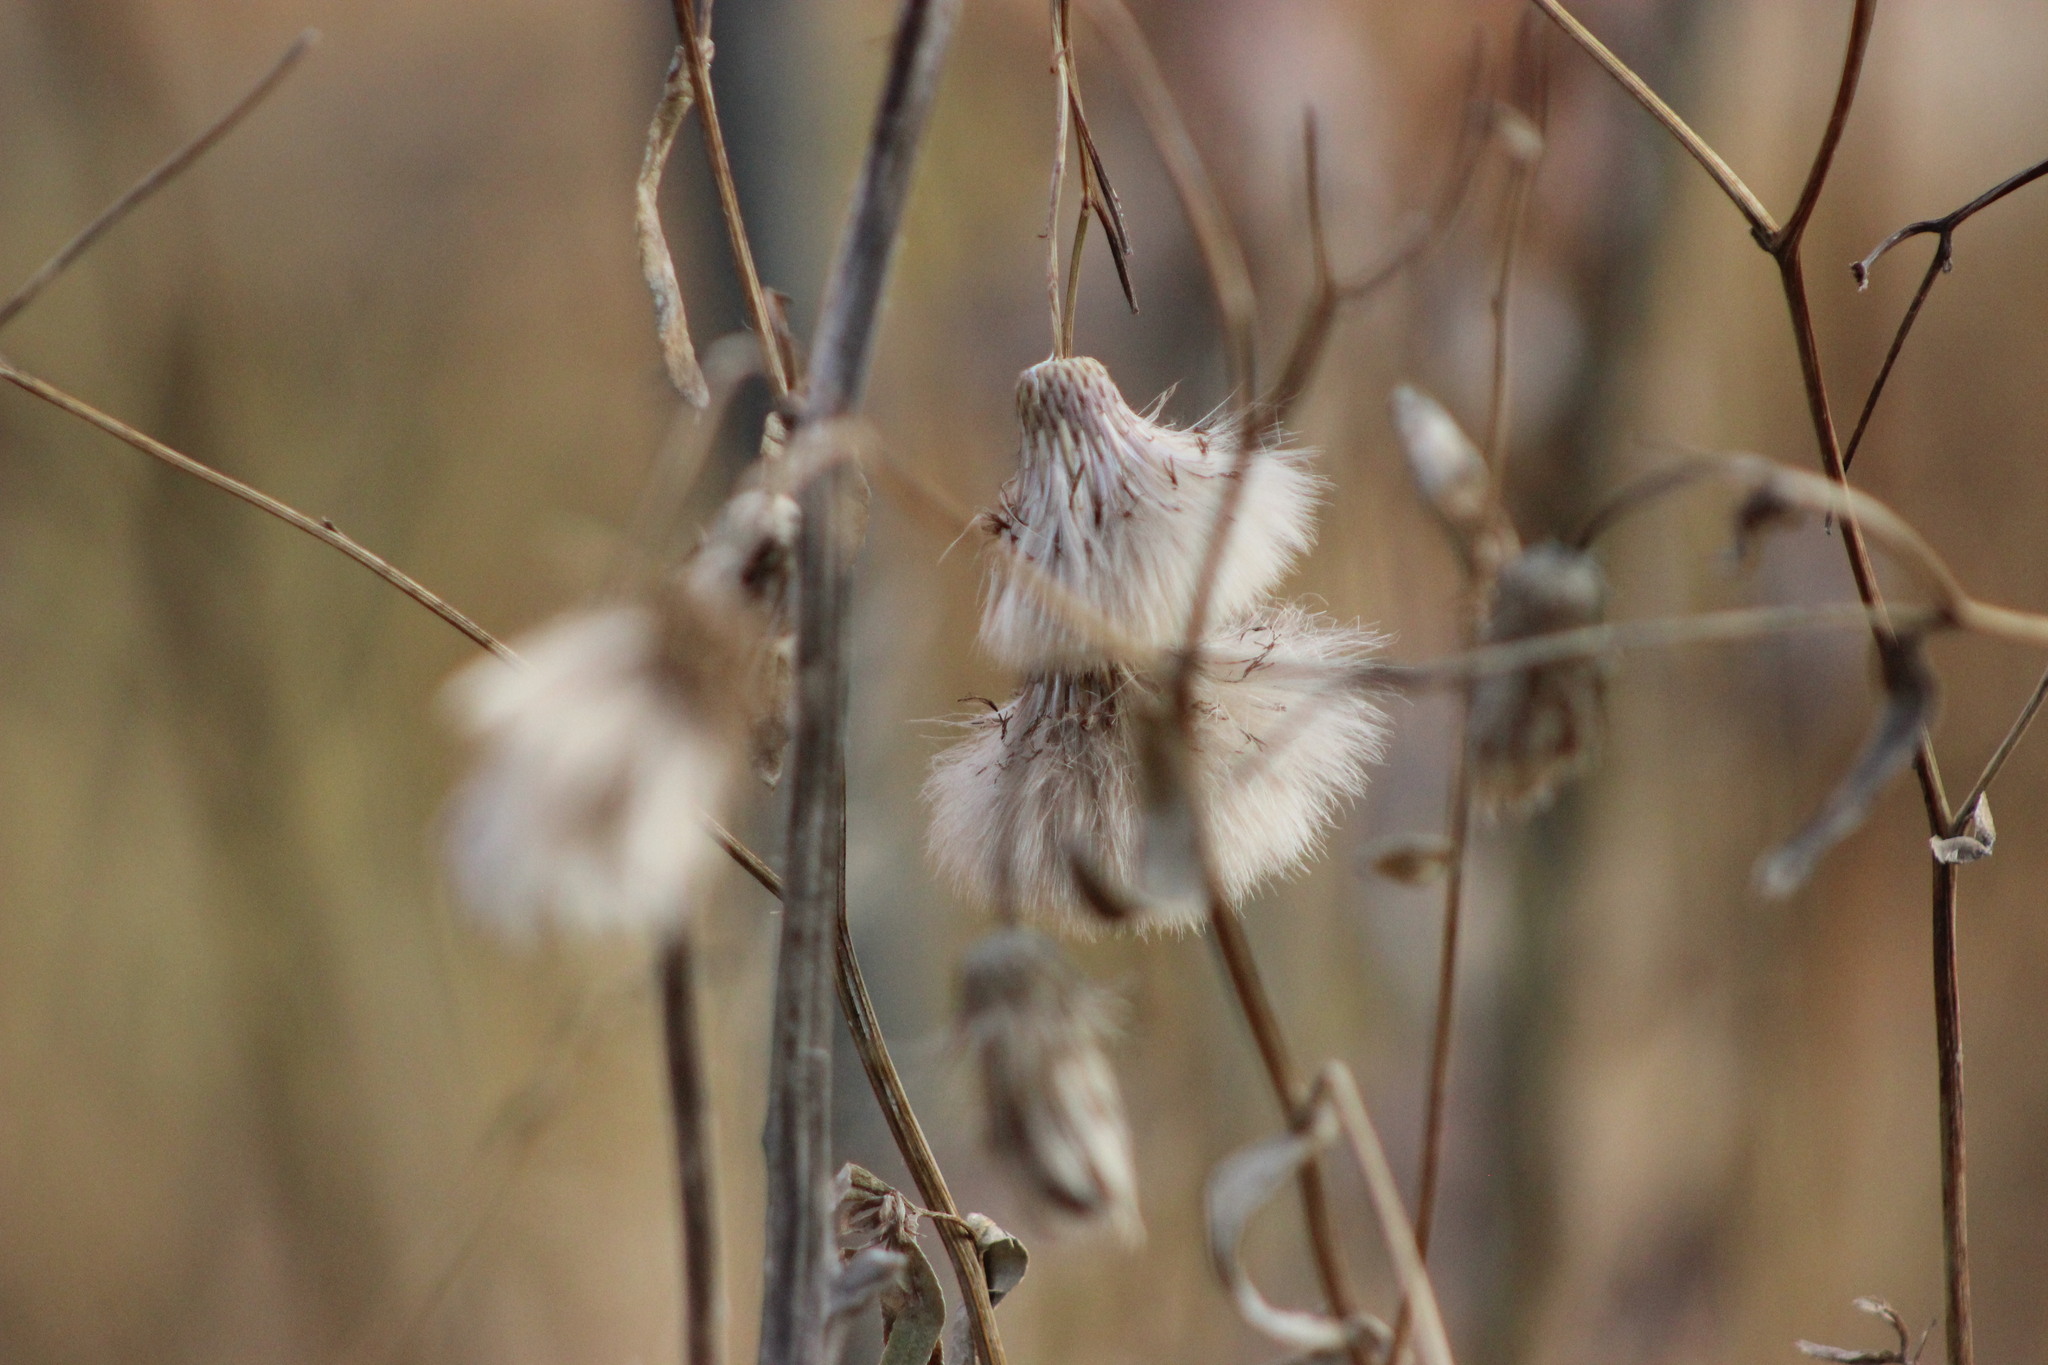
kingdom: Plantae
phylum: Tracheophyta
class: Magnoliopsida
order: Asterales
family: Asteraceae
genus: Cirsium
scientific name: Cirsium arvense
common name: Creeping thistle
